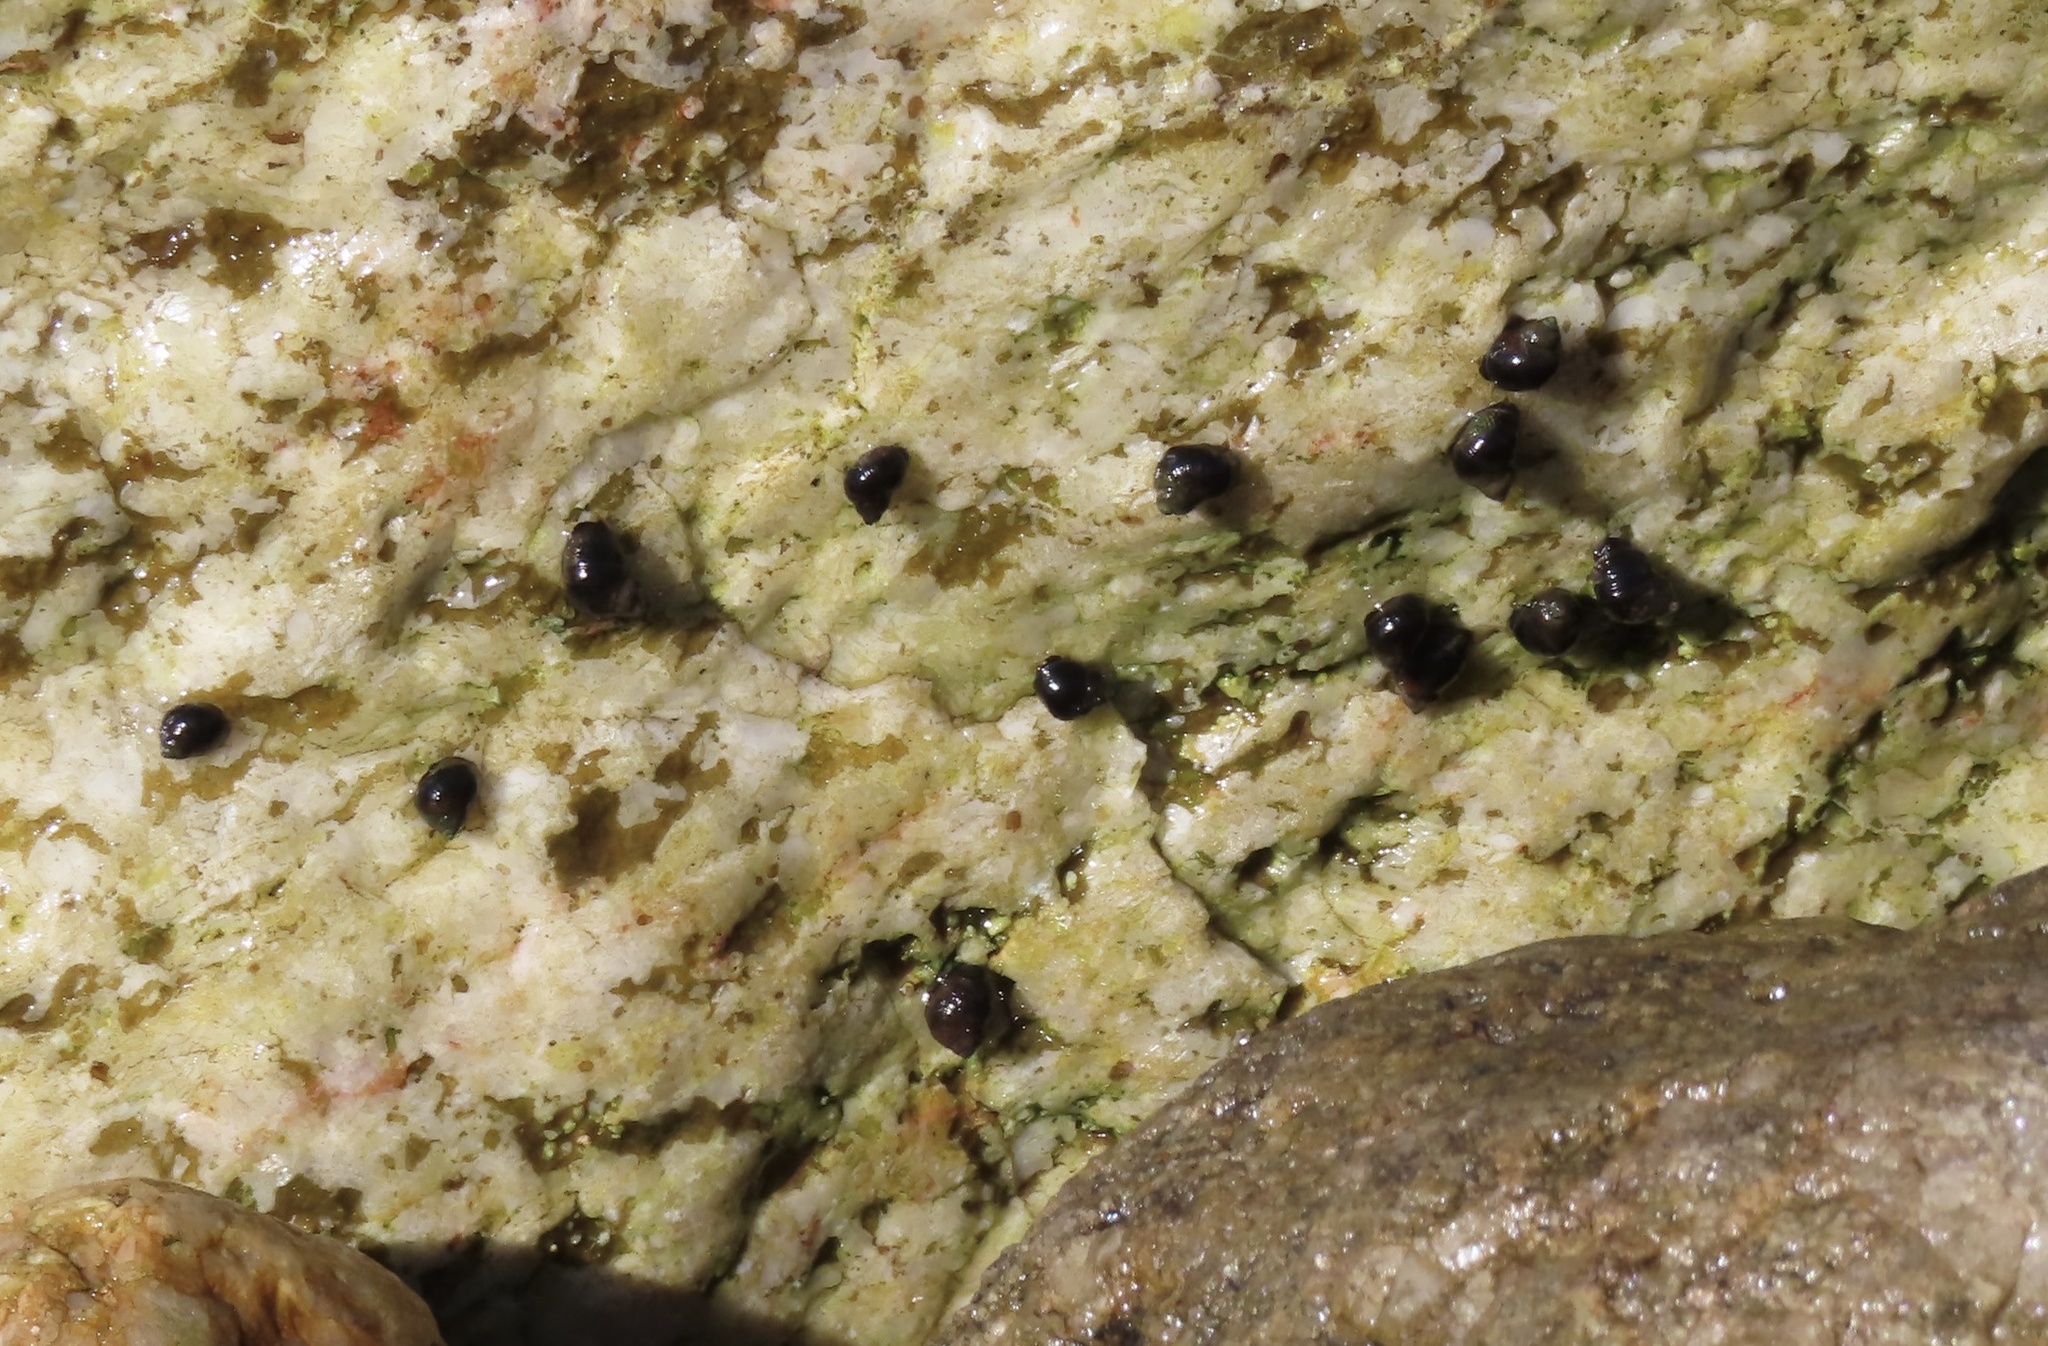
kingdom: Animalia
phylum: Mollusca
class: Gastropoda
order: Littorinimorpha
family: Littorinidae
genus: Afrolittorina
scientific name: Afrolittorina knysnaensis
